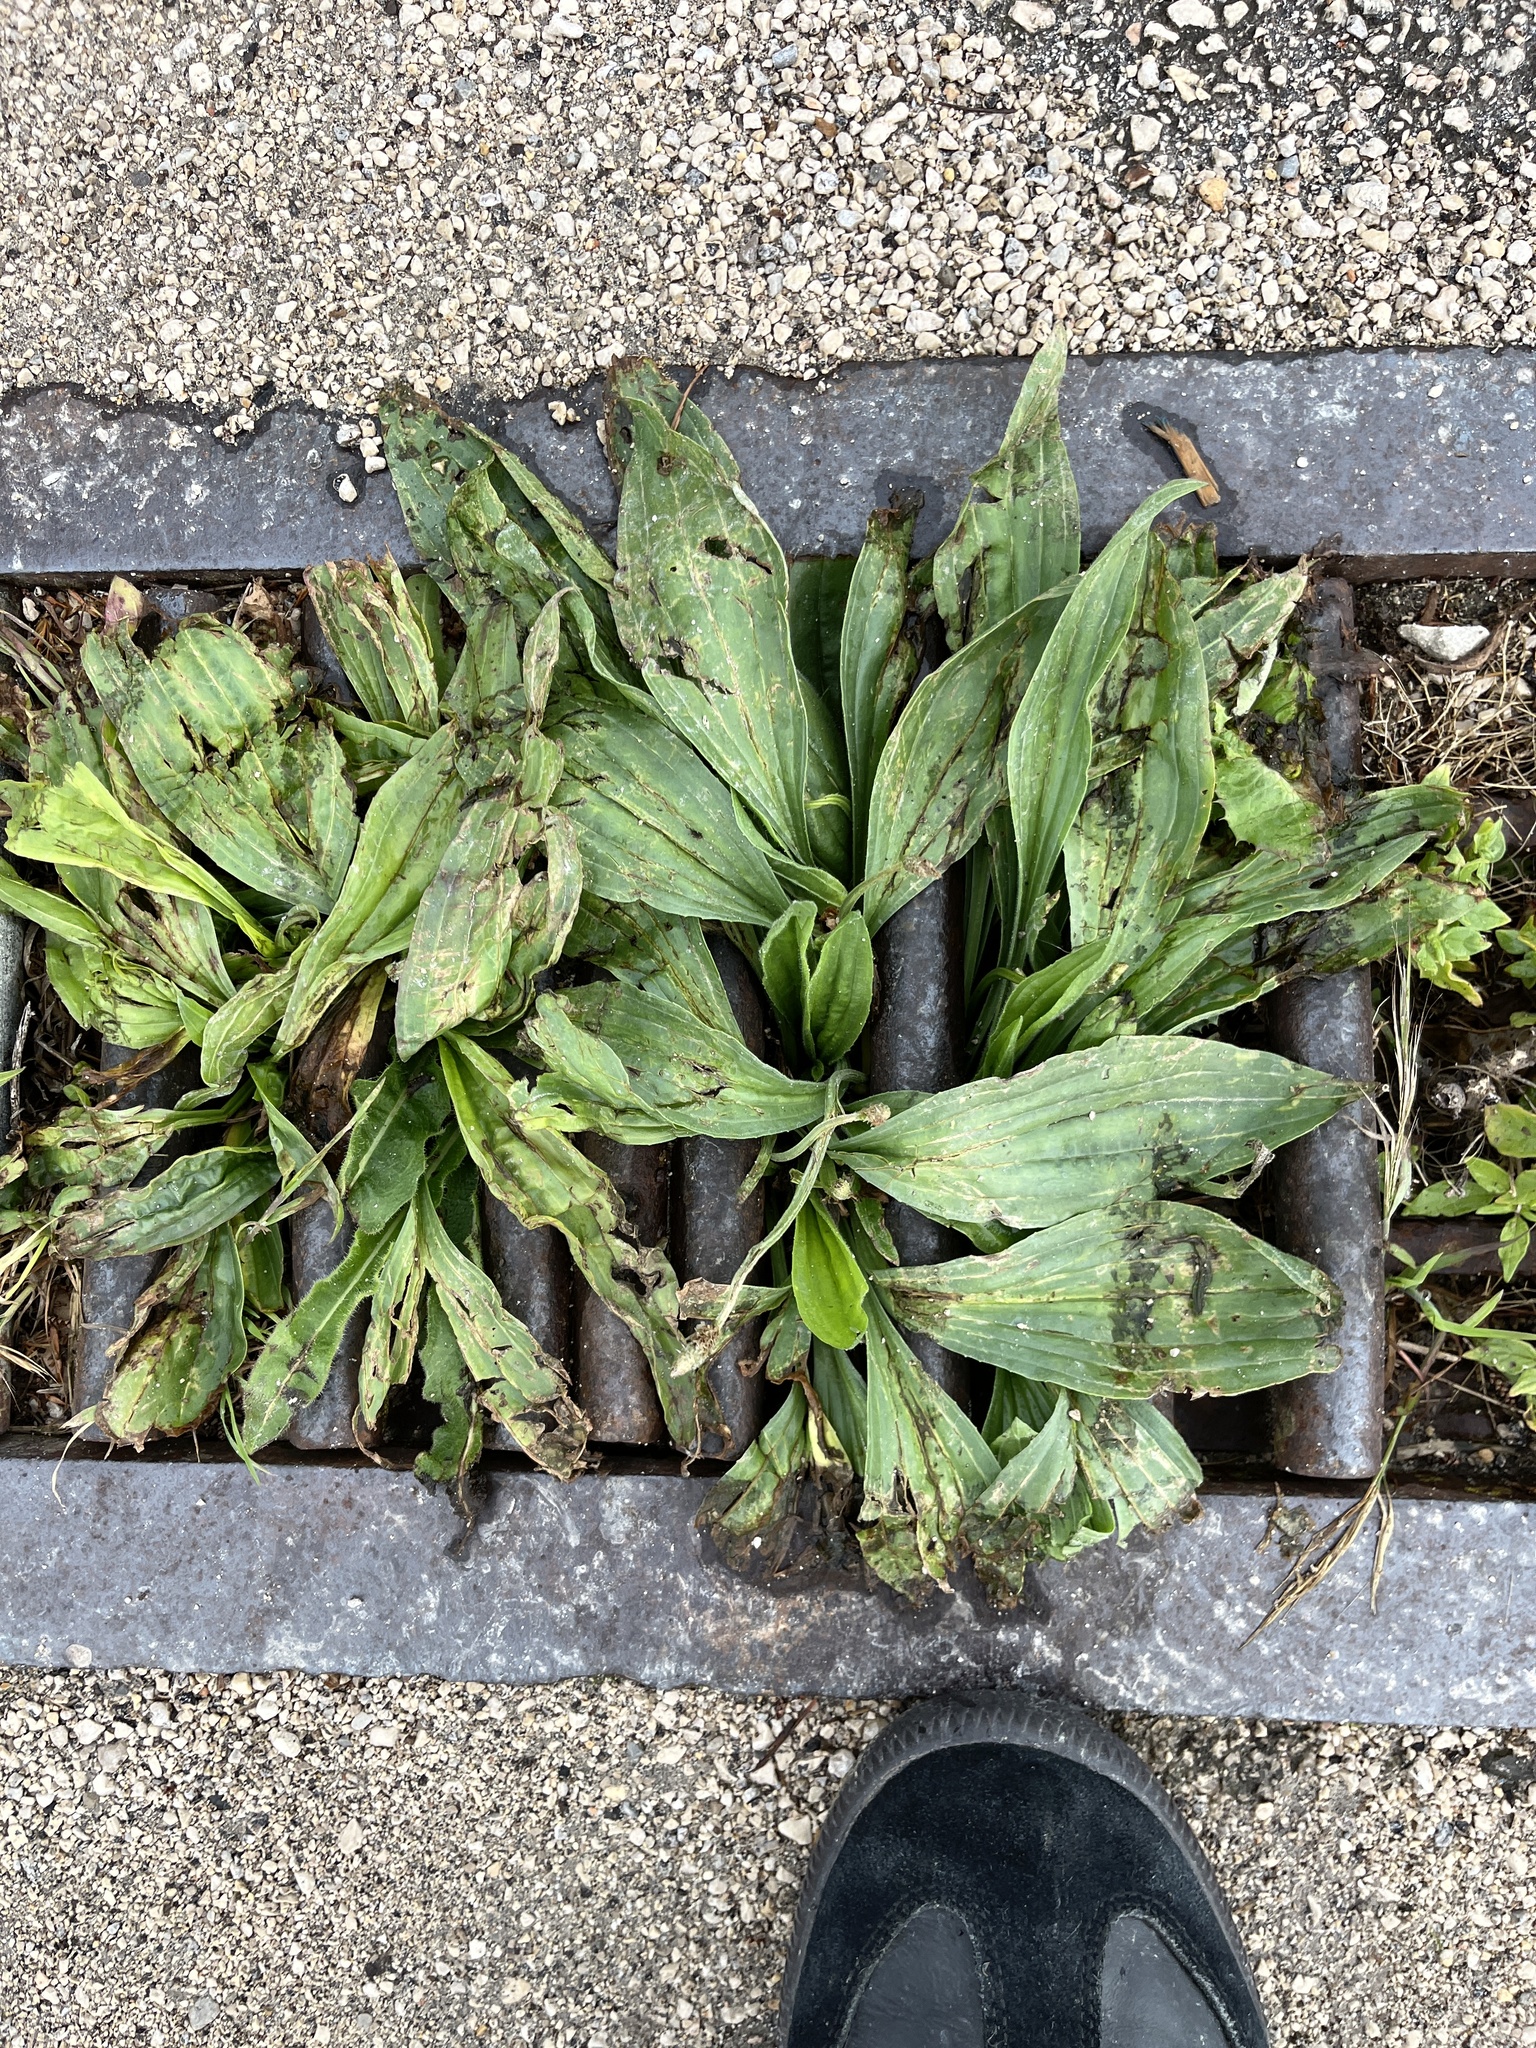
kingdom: Plantae
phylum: Tracheophyta
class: Magnoliopsida
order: Lamiales
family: Plantaginaceae
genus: Plantago
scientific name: Plantago lanceolata
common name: Ribwort plantain
